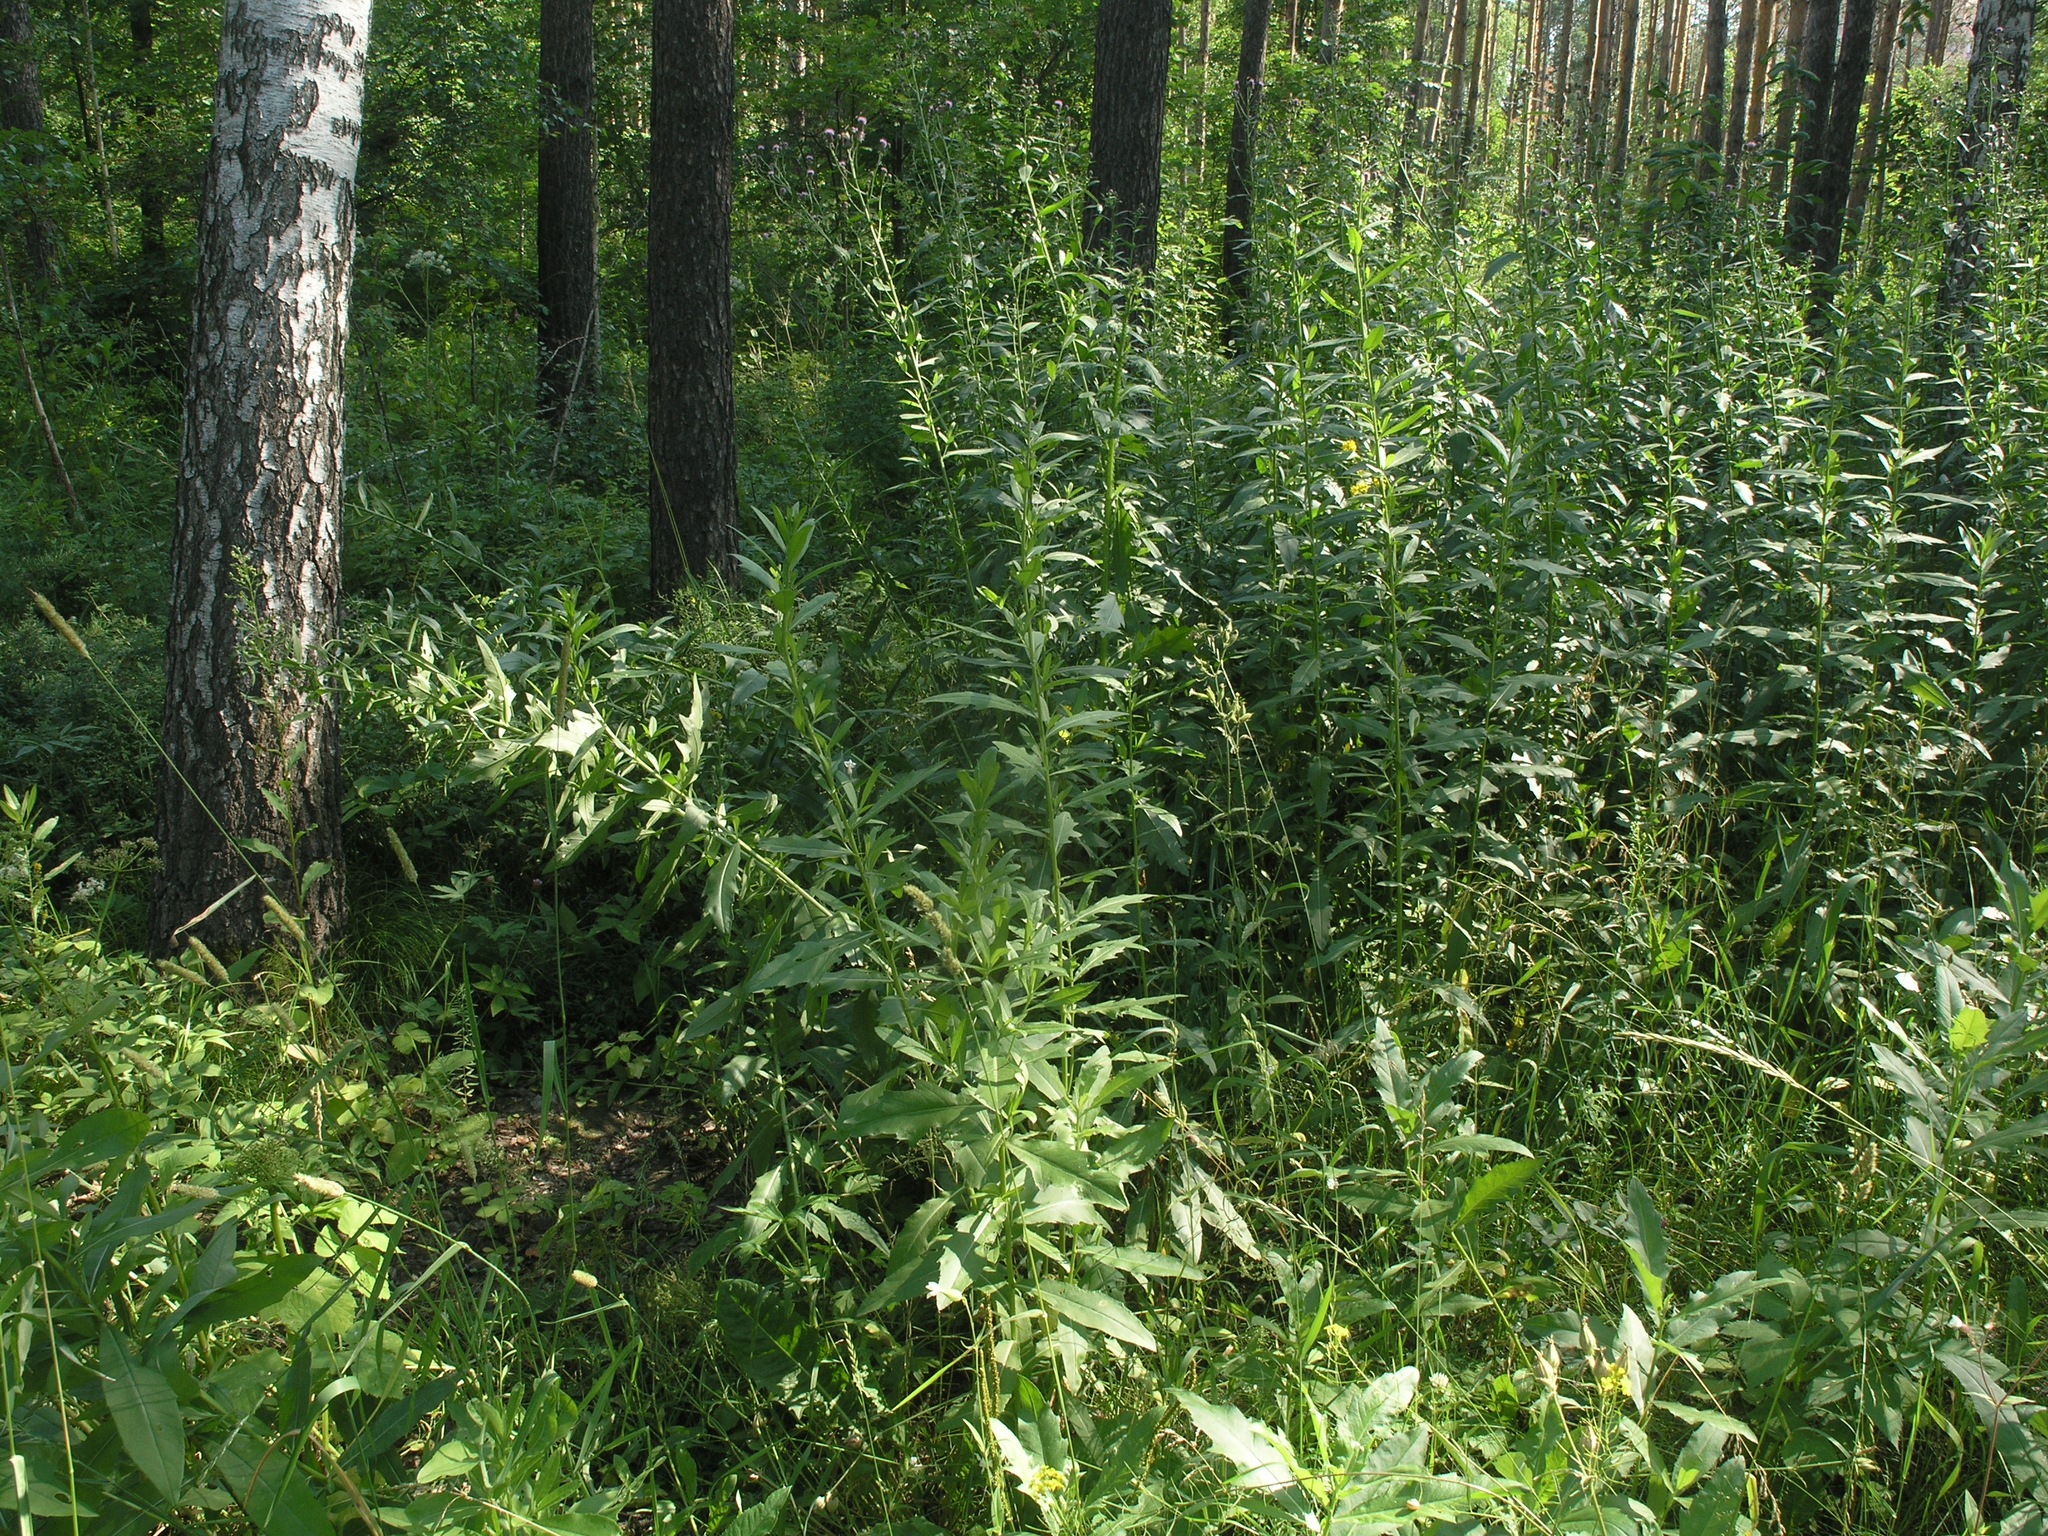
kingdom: Plantae
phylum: Tracheophyta
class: Magnoliopsida
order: Asterales
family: Asteraceae
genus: Cirsium
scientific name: Cirsium arvense
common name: Creeping thistle
